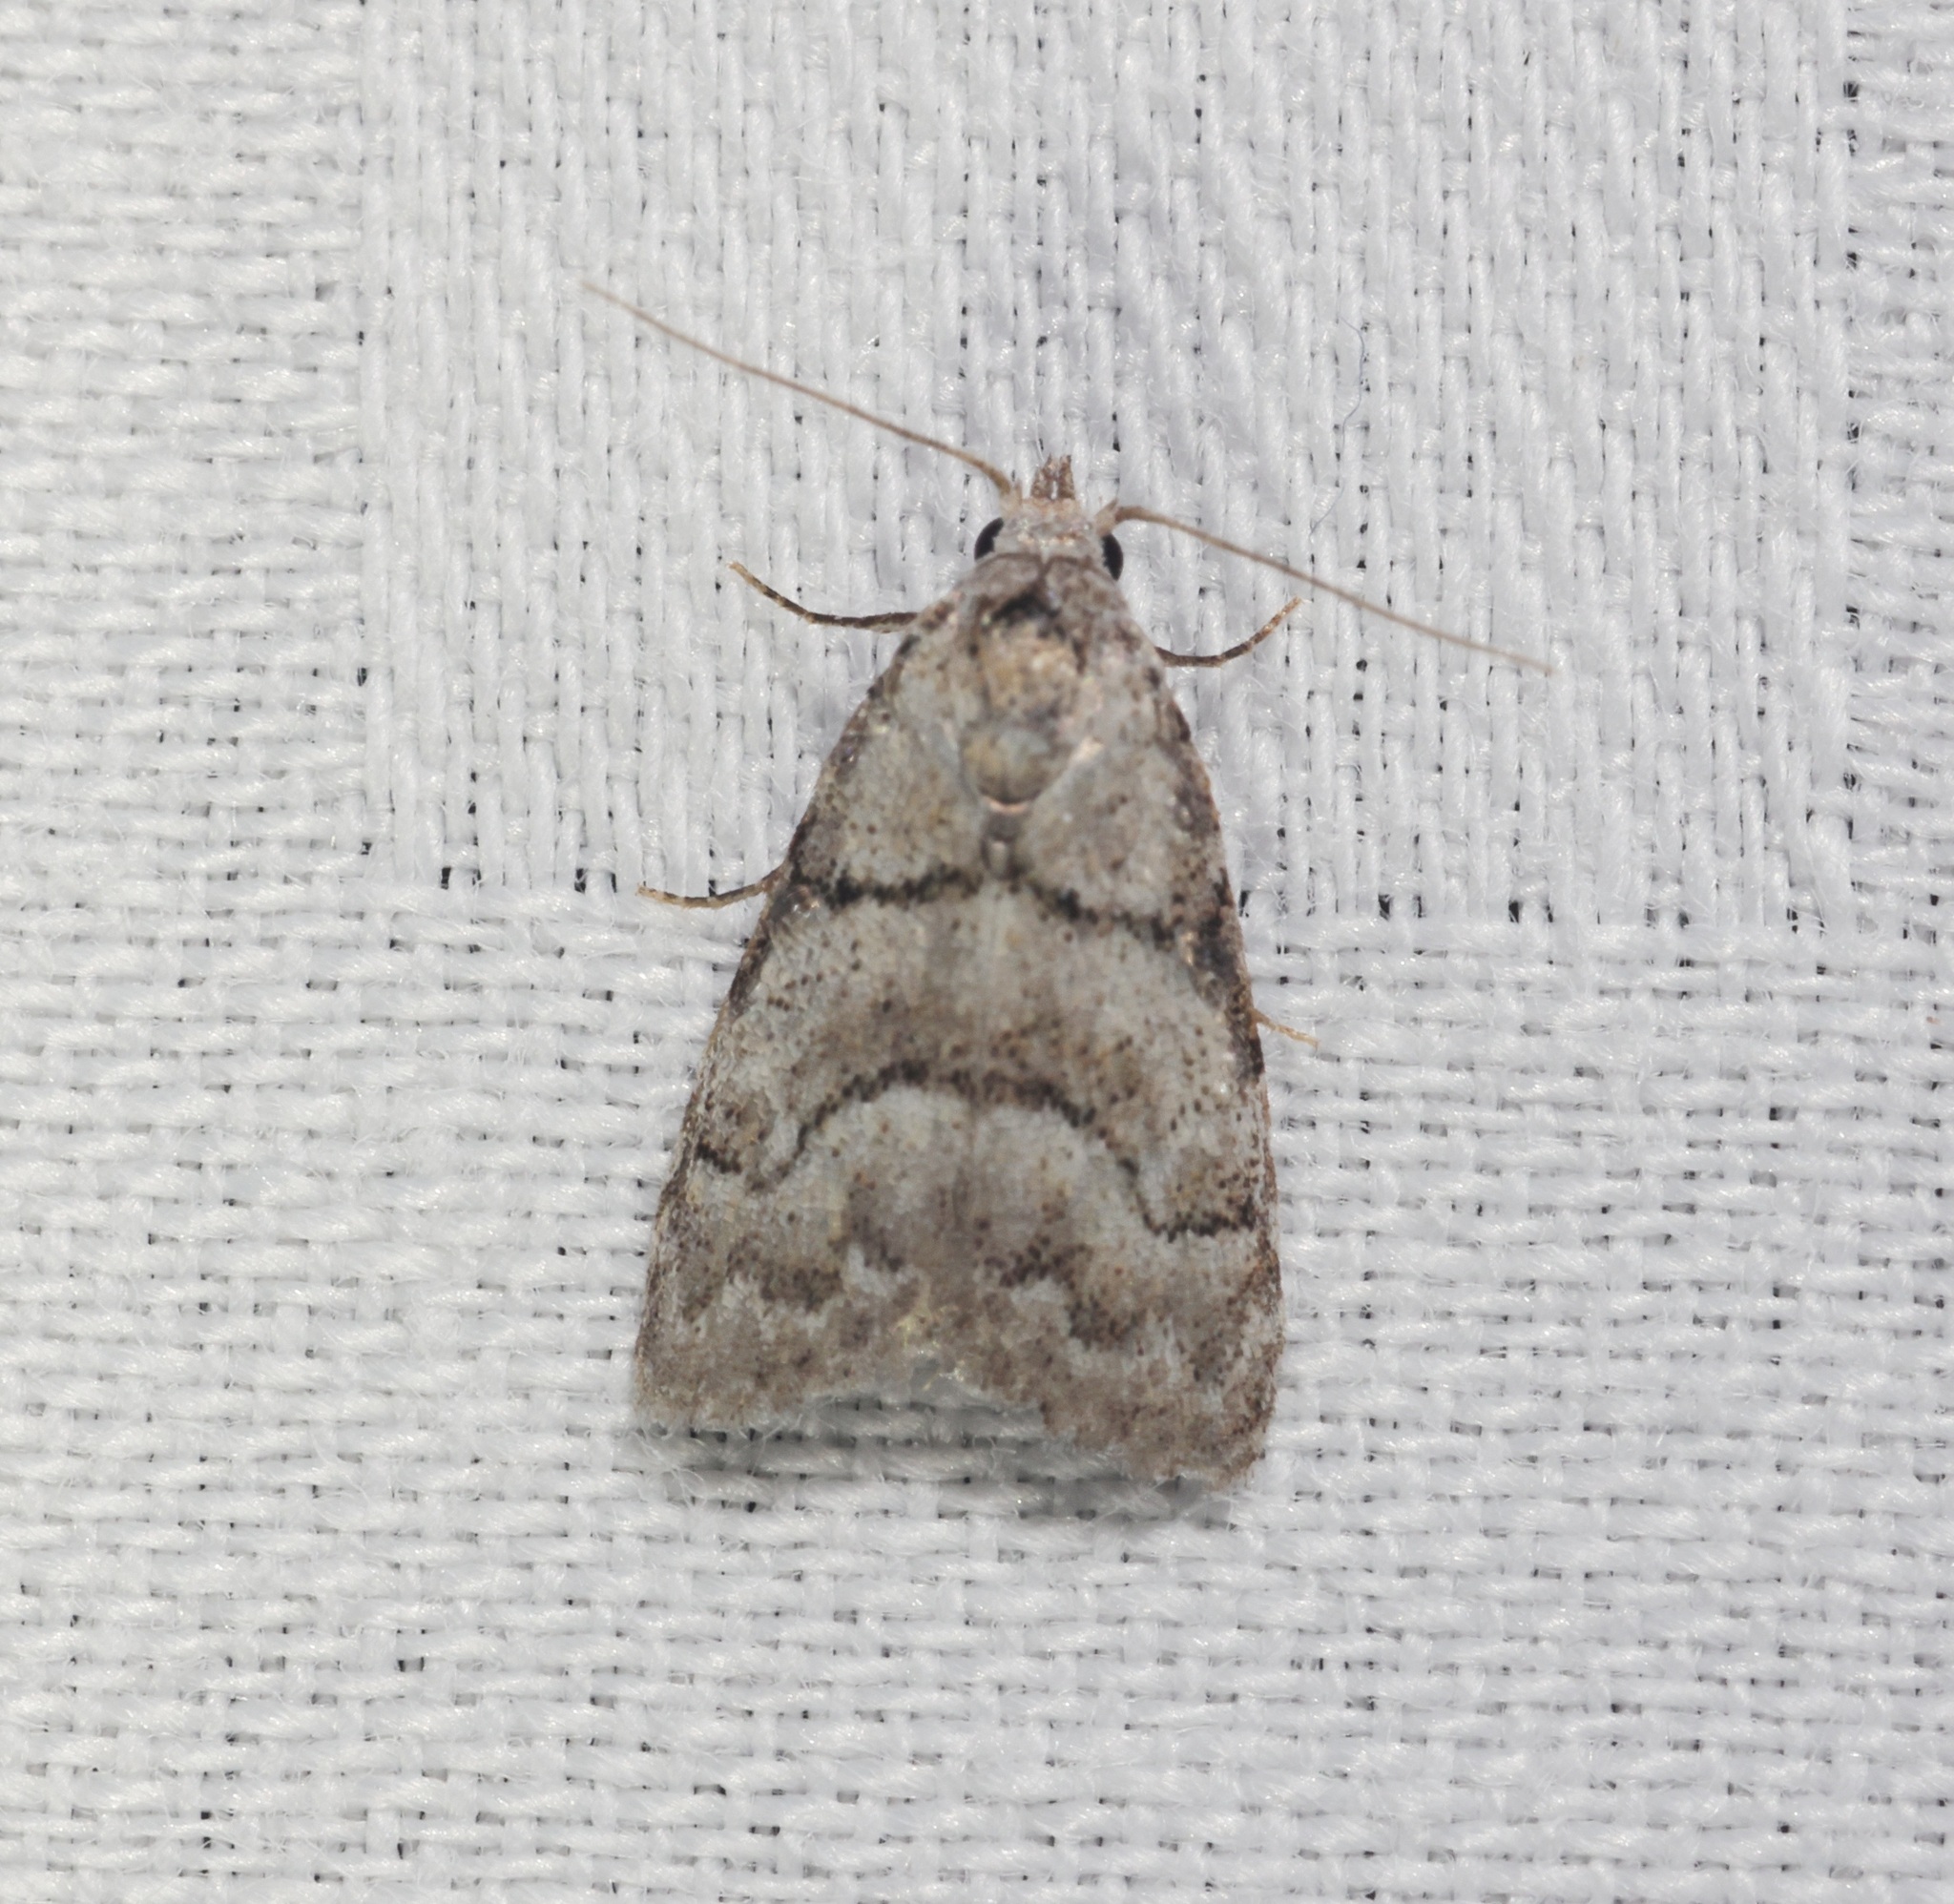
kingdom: Animalia
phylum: Arthropoda
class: Insecta
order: Lepidoptera
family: Nolidae
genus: Inouenola
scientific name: Inouenola pallescens
